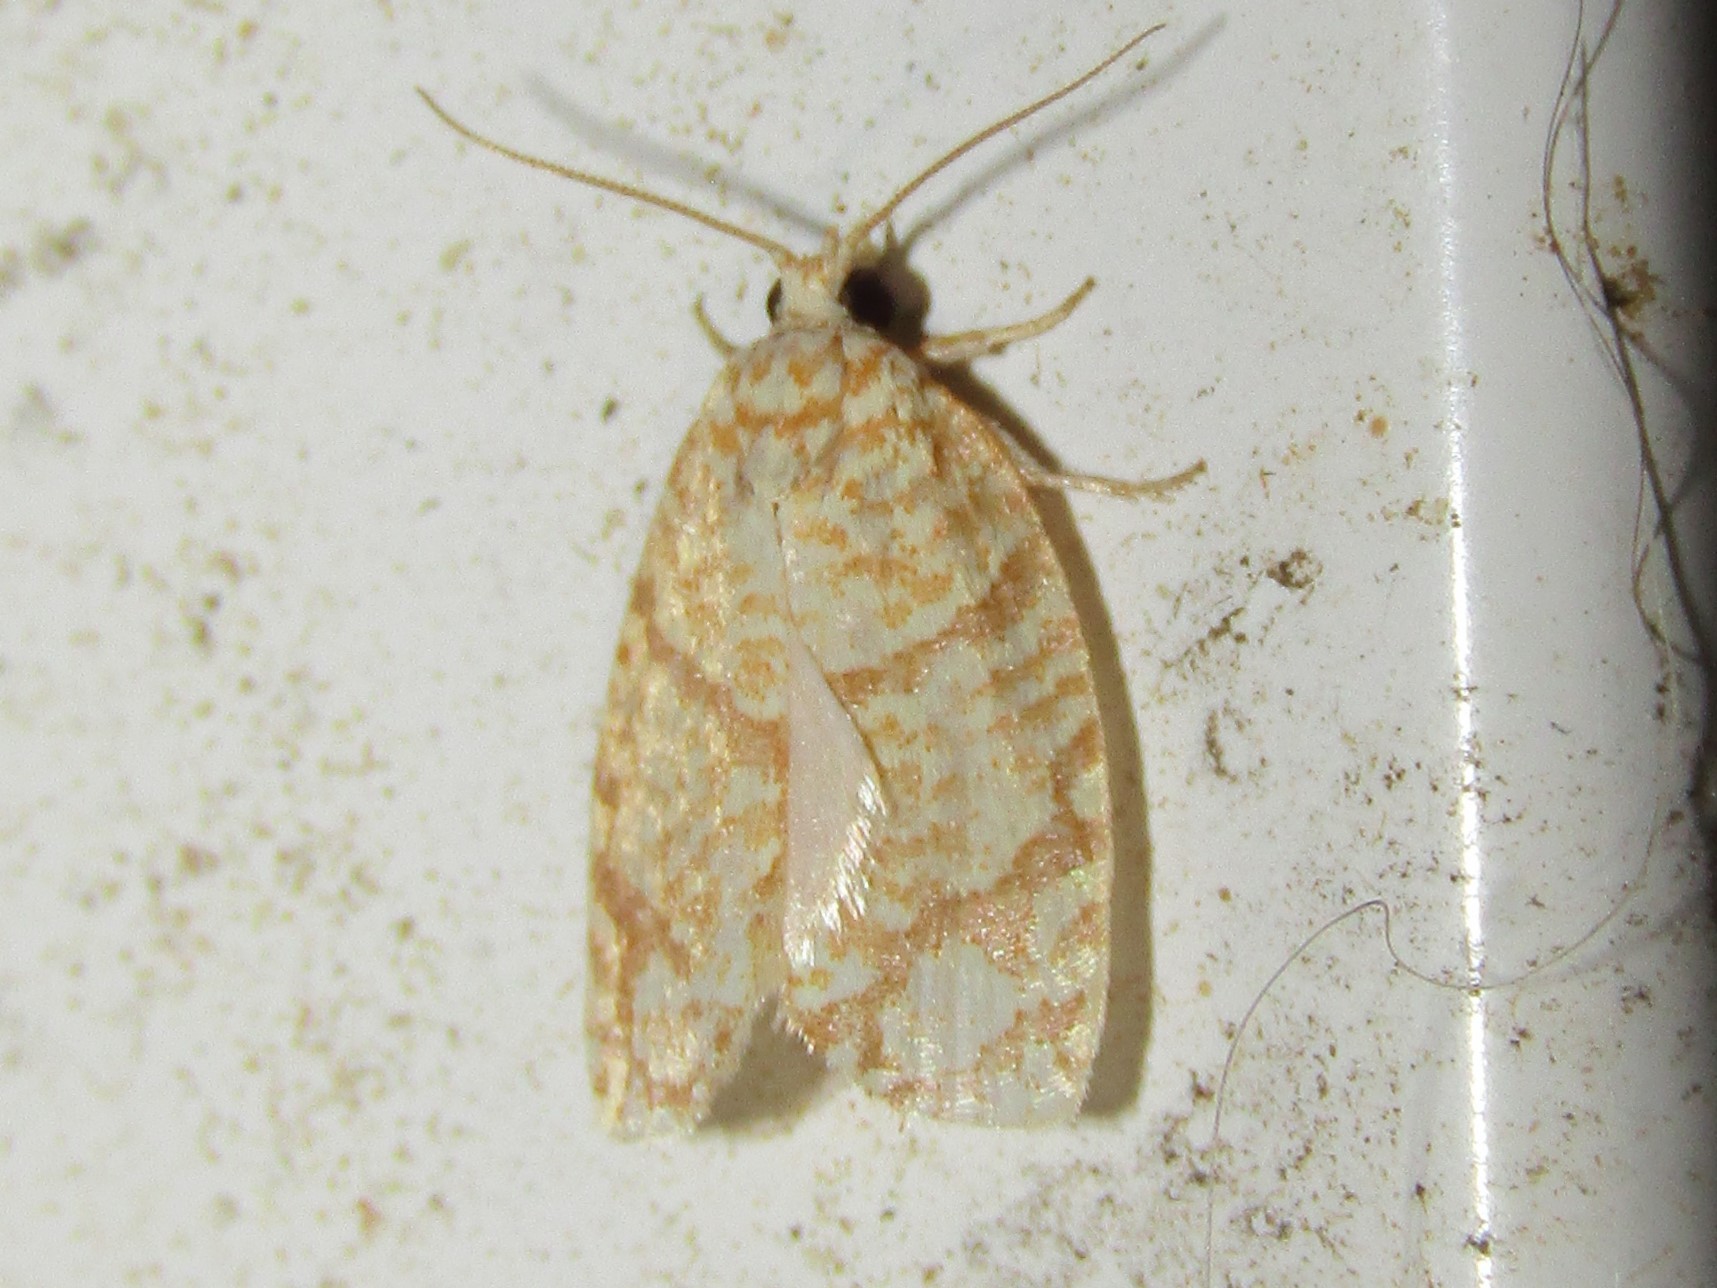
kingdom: Animalia
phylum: Arthropoda
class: Insecta
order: Lepidoptera
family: Tortricidae
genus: Argyrotaenia
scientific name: Argyrotaenia quercifoliana
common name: Yellow-winged oak leafroller moth
